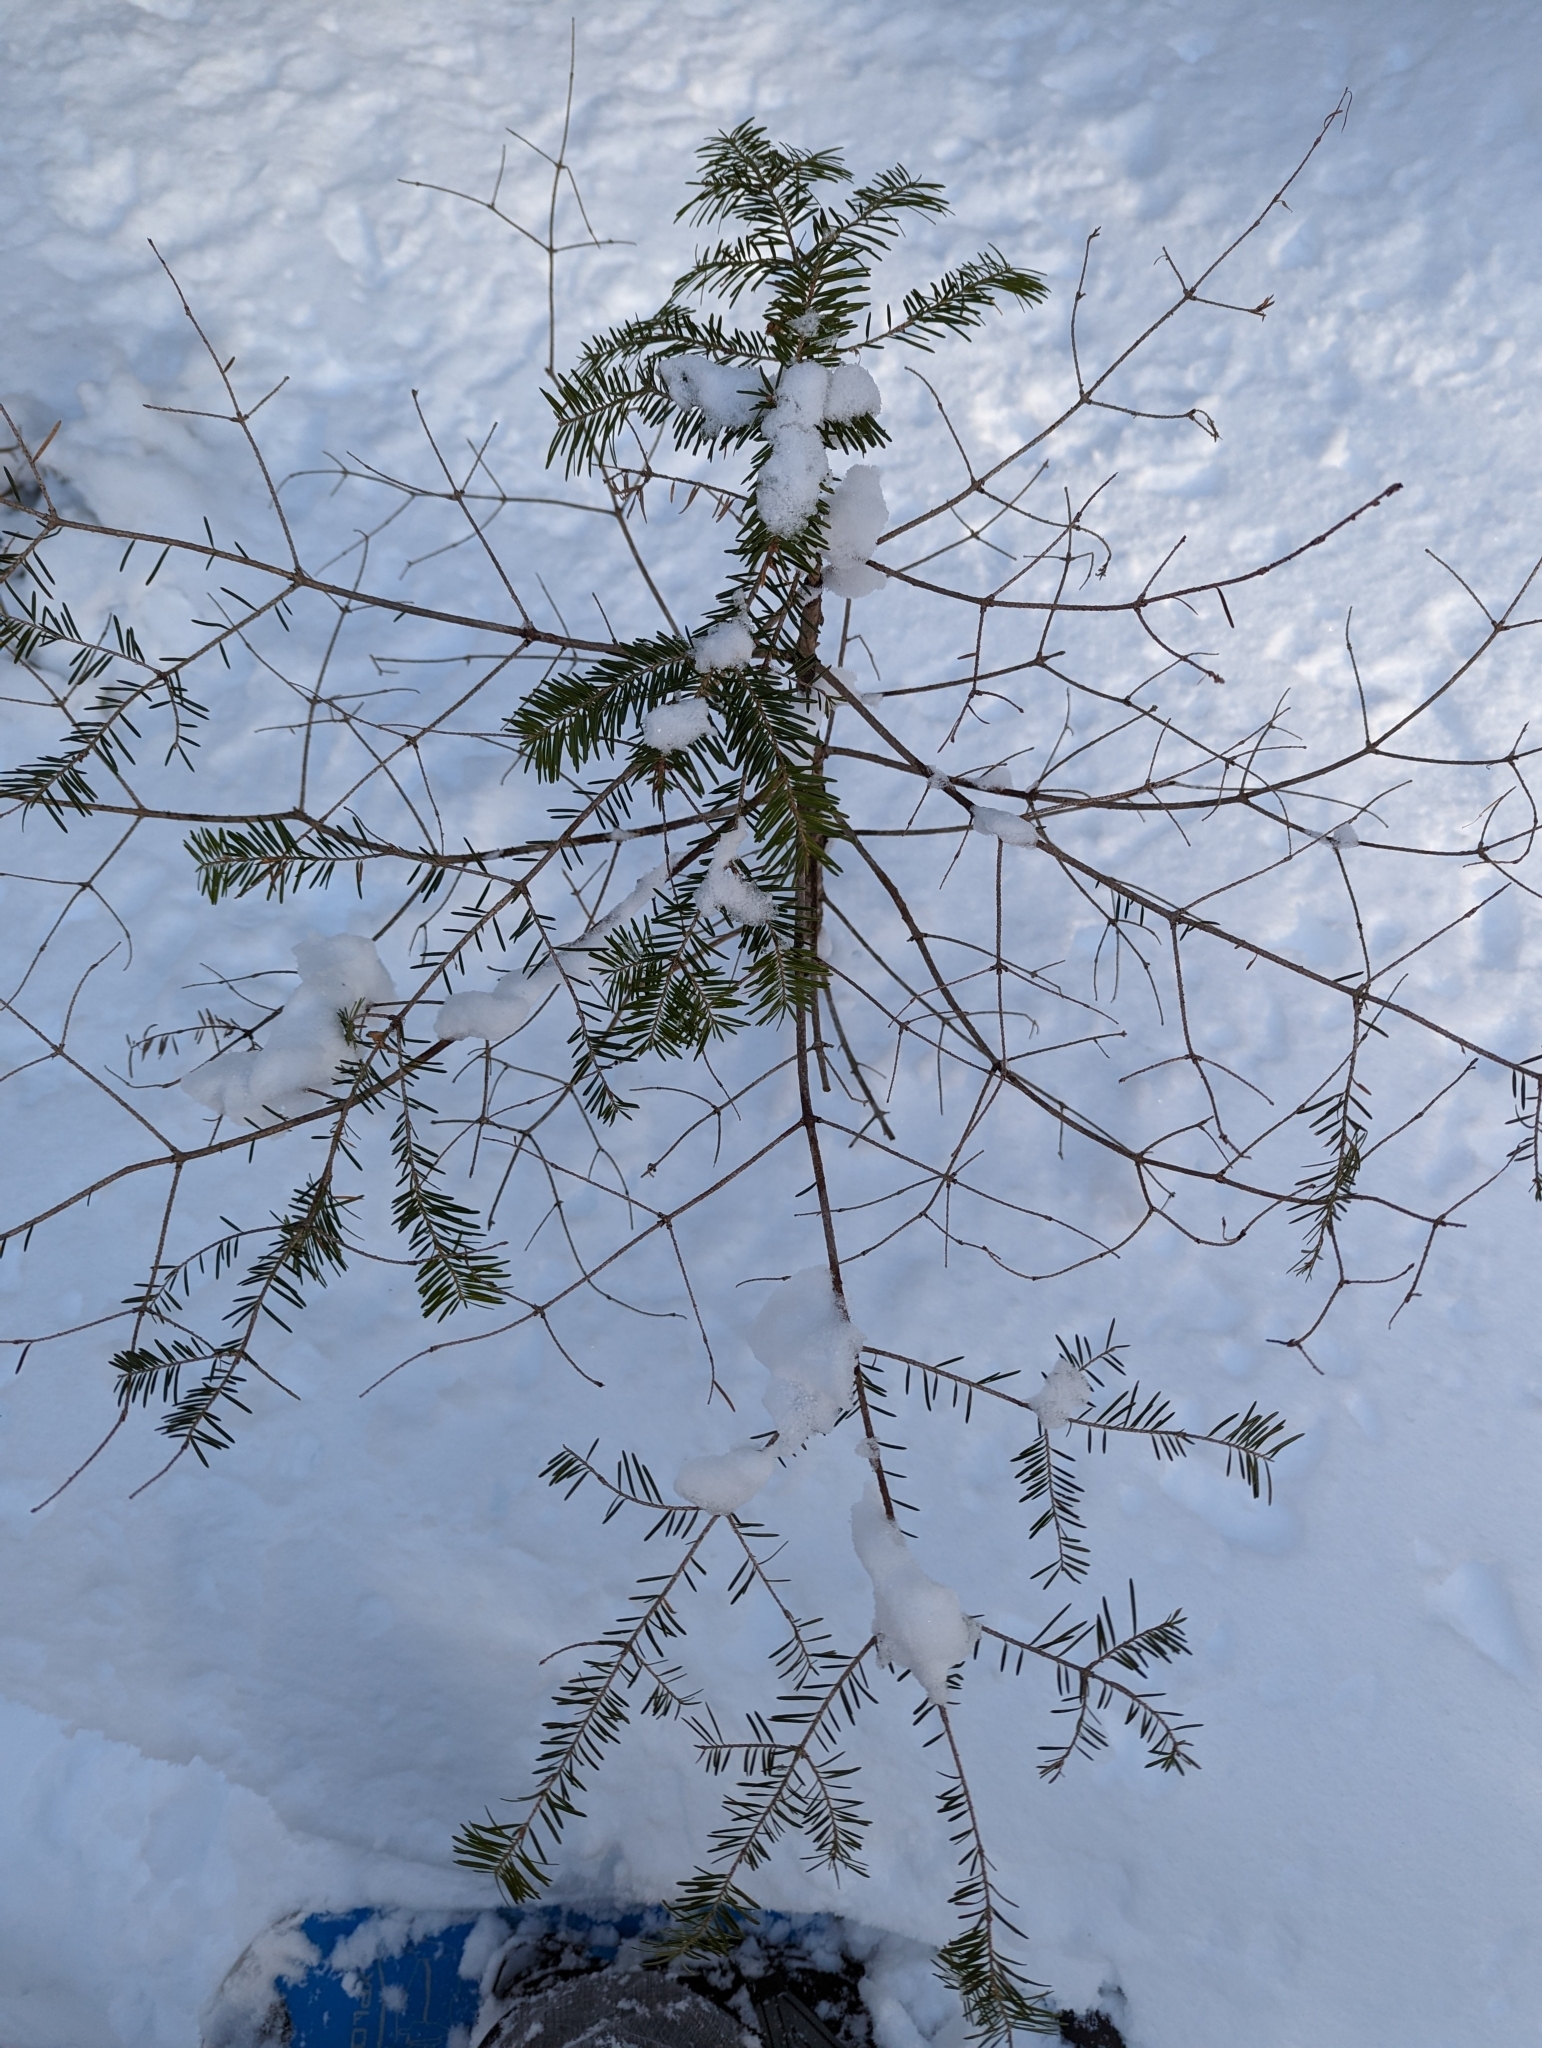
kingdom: Plantae
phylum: Tracheophyta
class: Pinopsida
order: Pinales
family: Pinaceae
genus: Abies
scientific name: Abies balsamea
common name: Balsam fir
